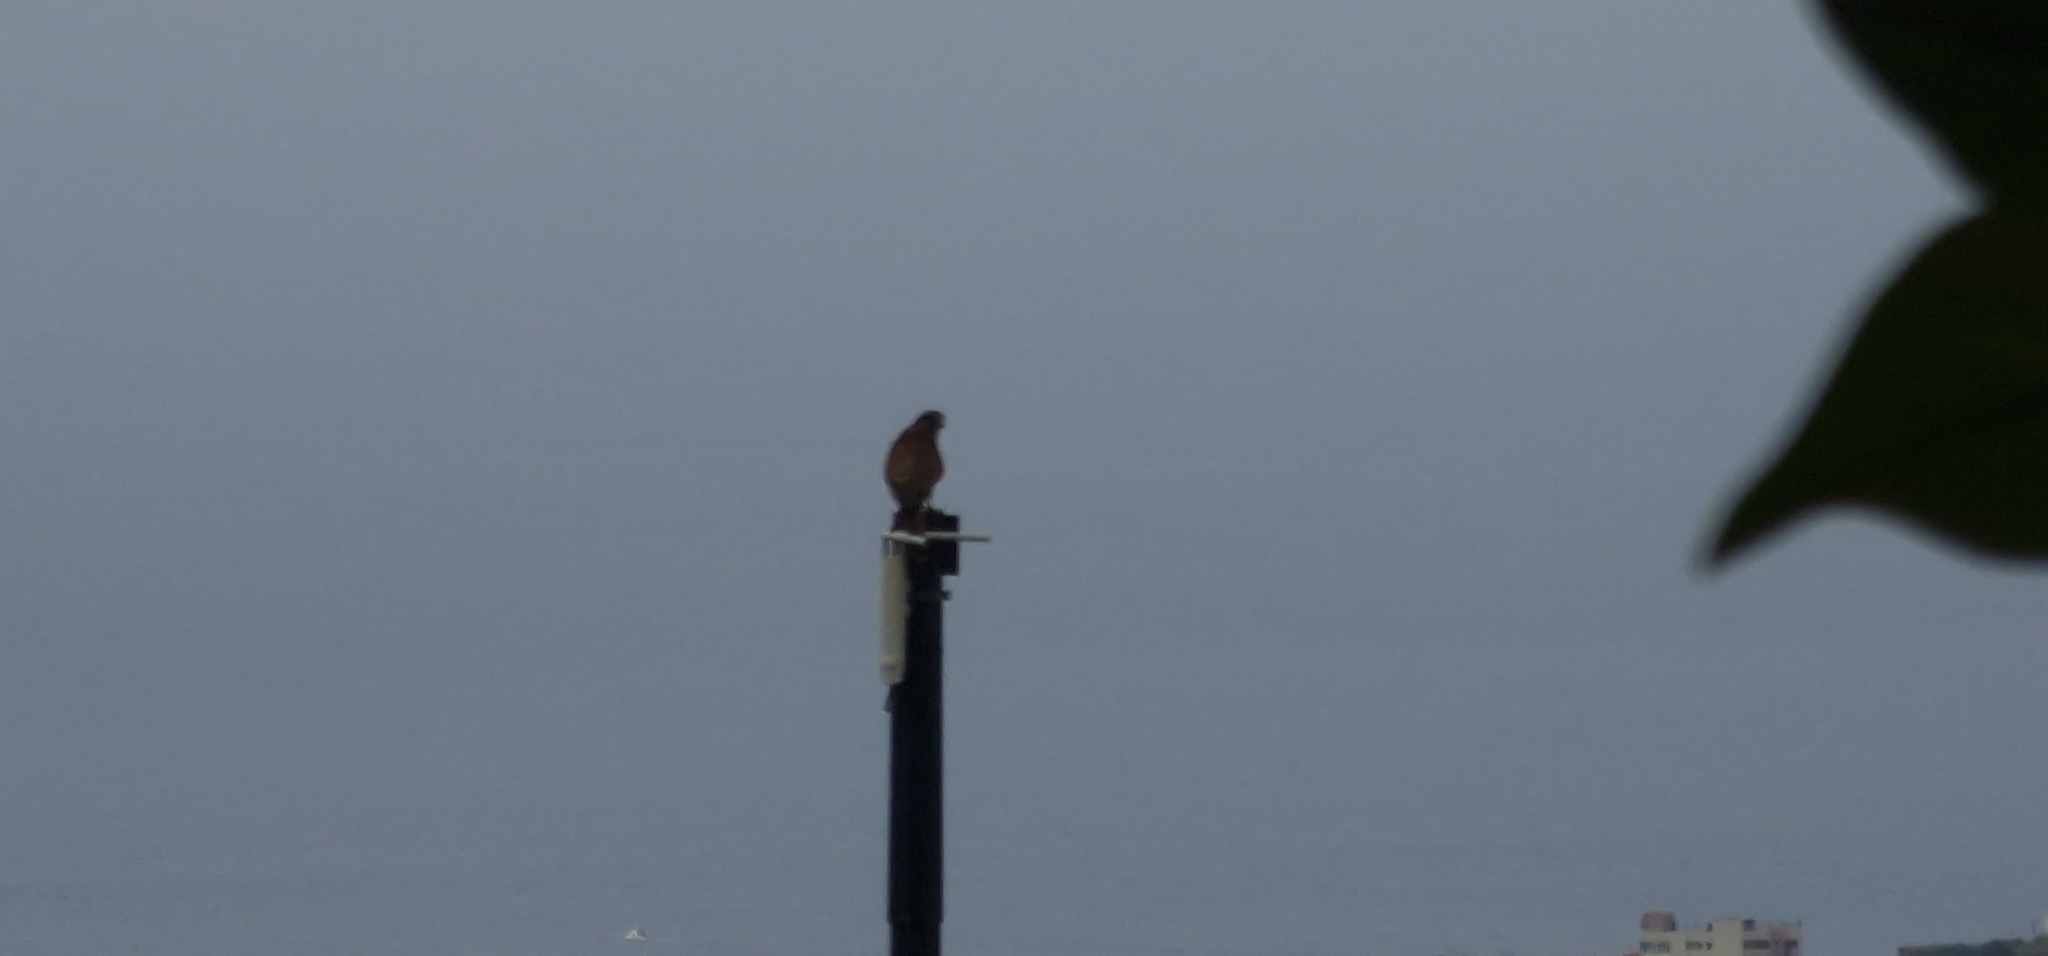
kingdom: Animalia
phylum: Chordata
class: Aves
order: Falconiformes
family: Falconidae
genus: Falco
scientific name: Falco tinnunculus
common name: Common kestrel
